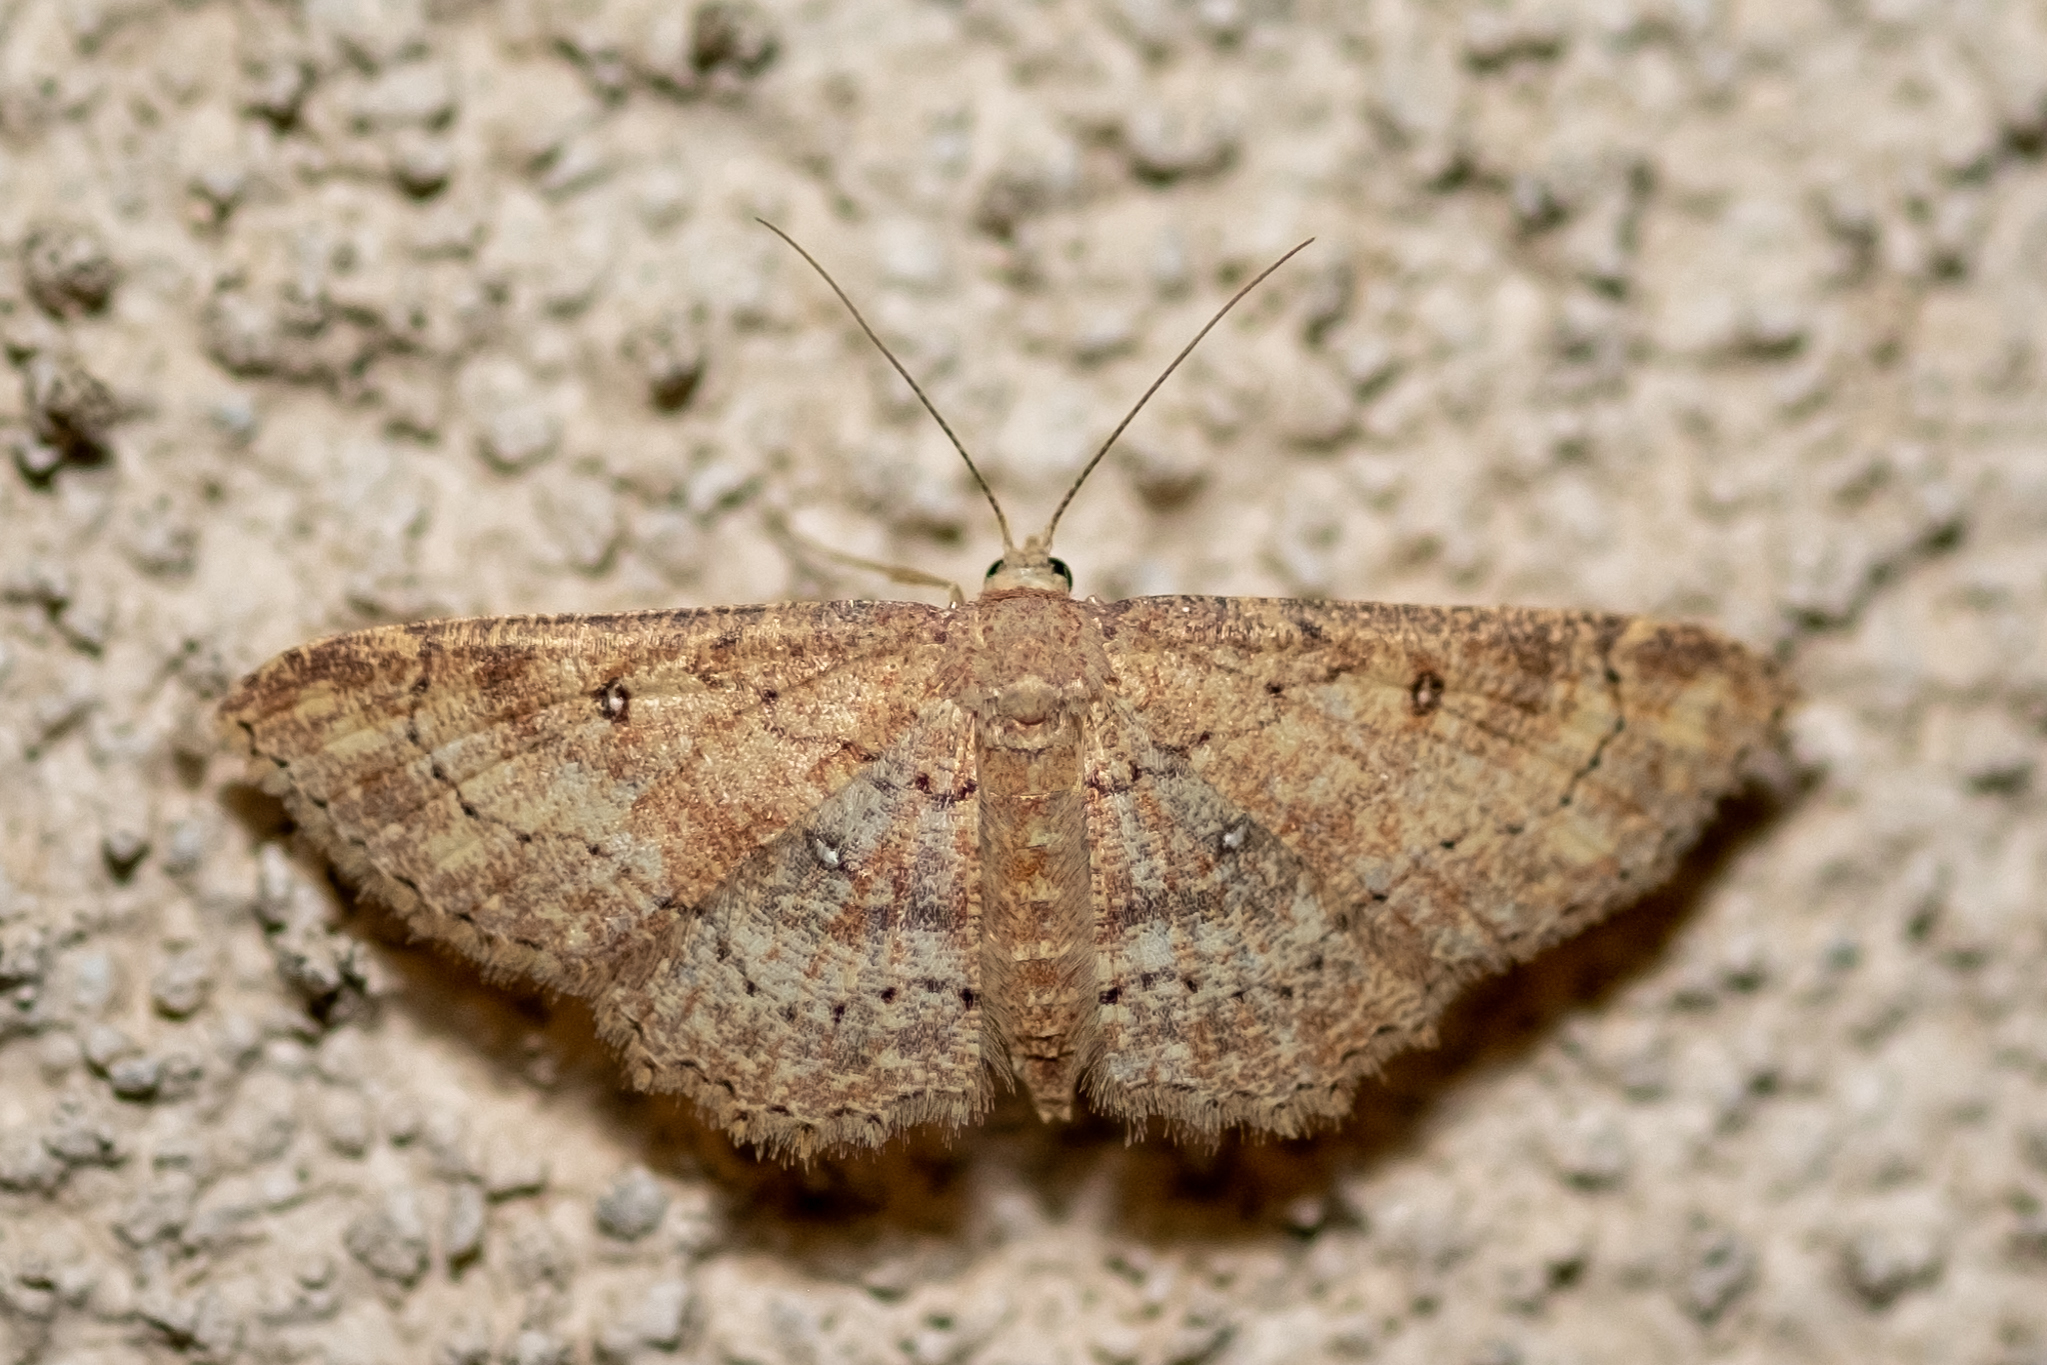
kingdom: Animalia
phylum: Arthropoda
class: Insecta
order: Lepidoptera
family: Geometridae
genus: Cyclophora
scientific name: Cyclophora nanaria
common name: Cankerworm
